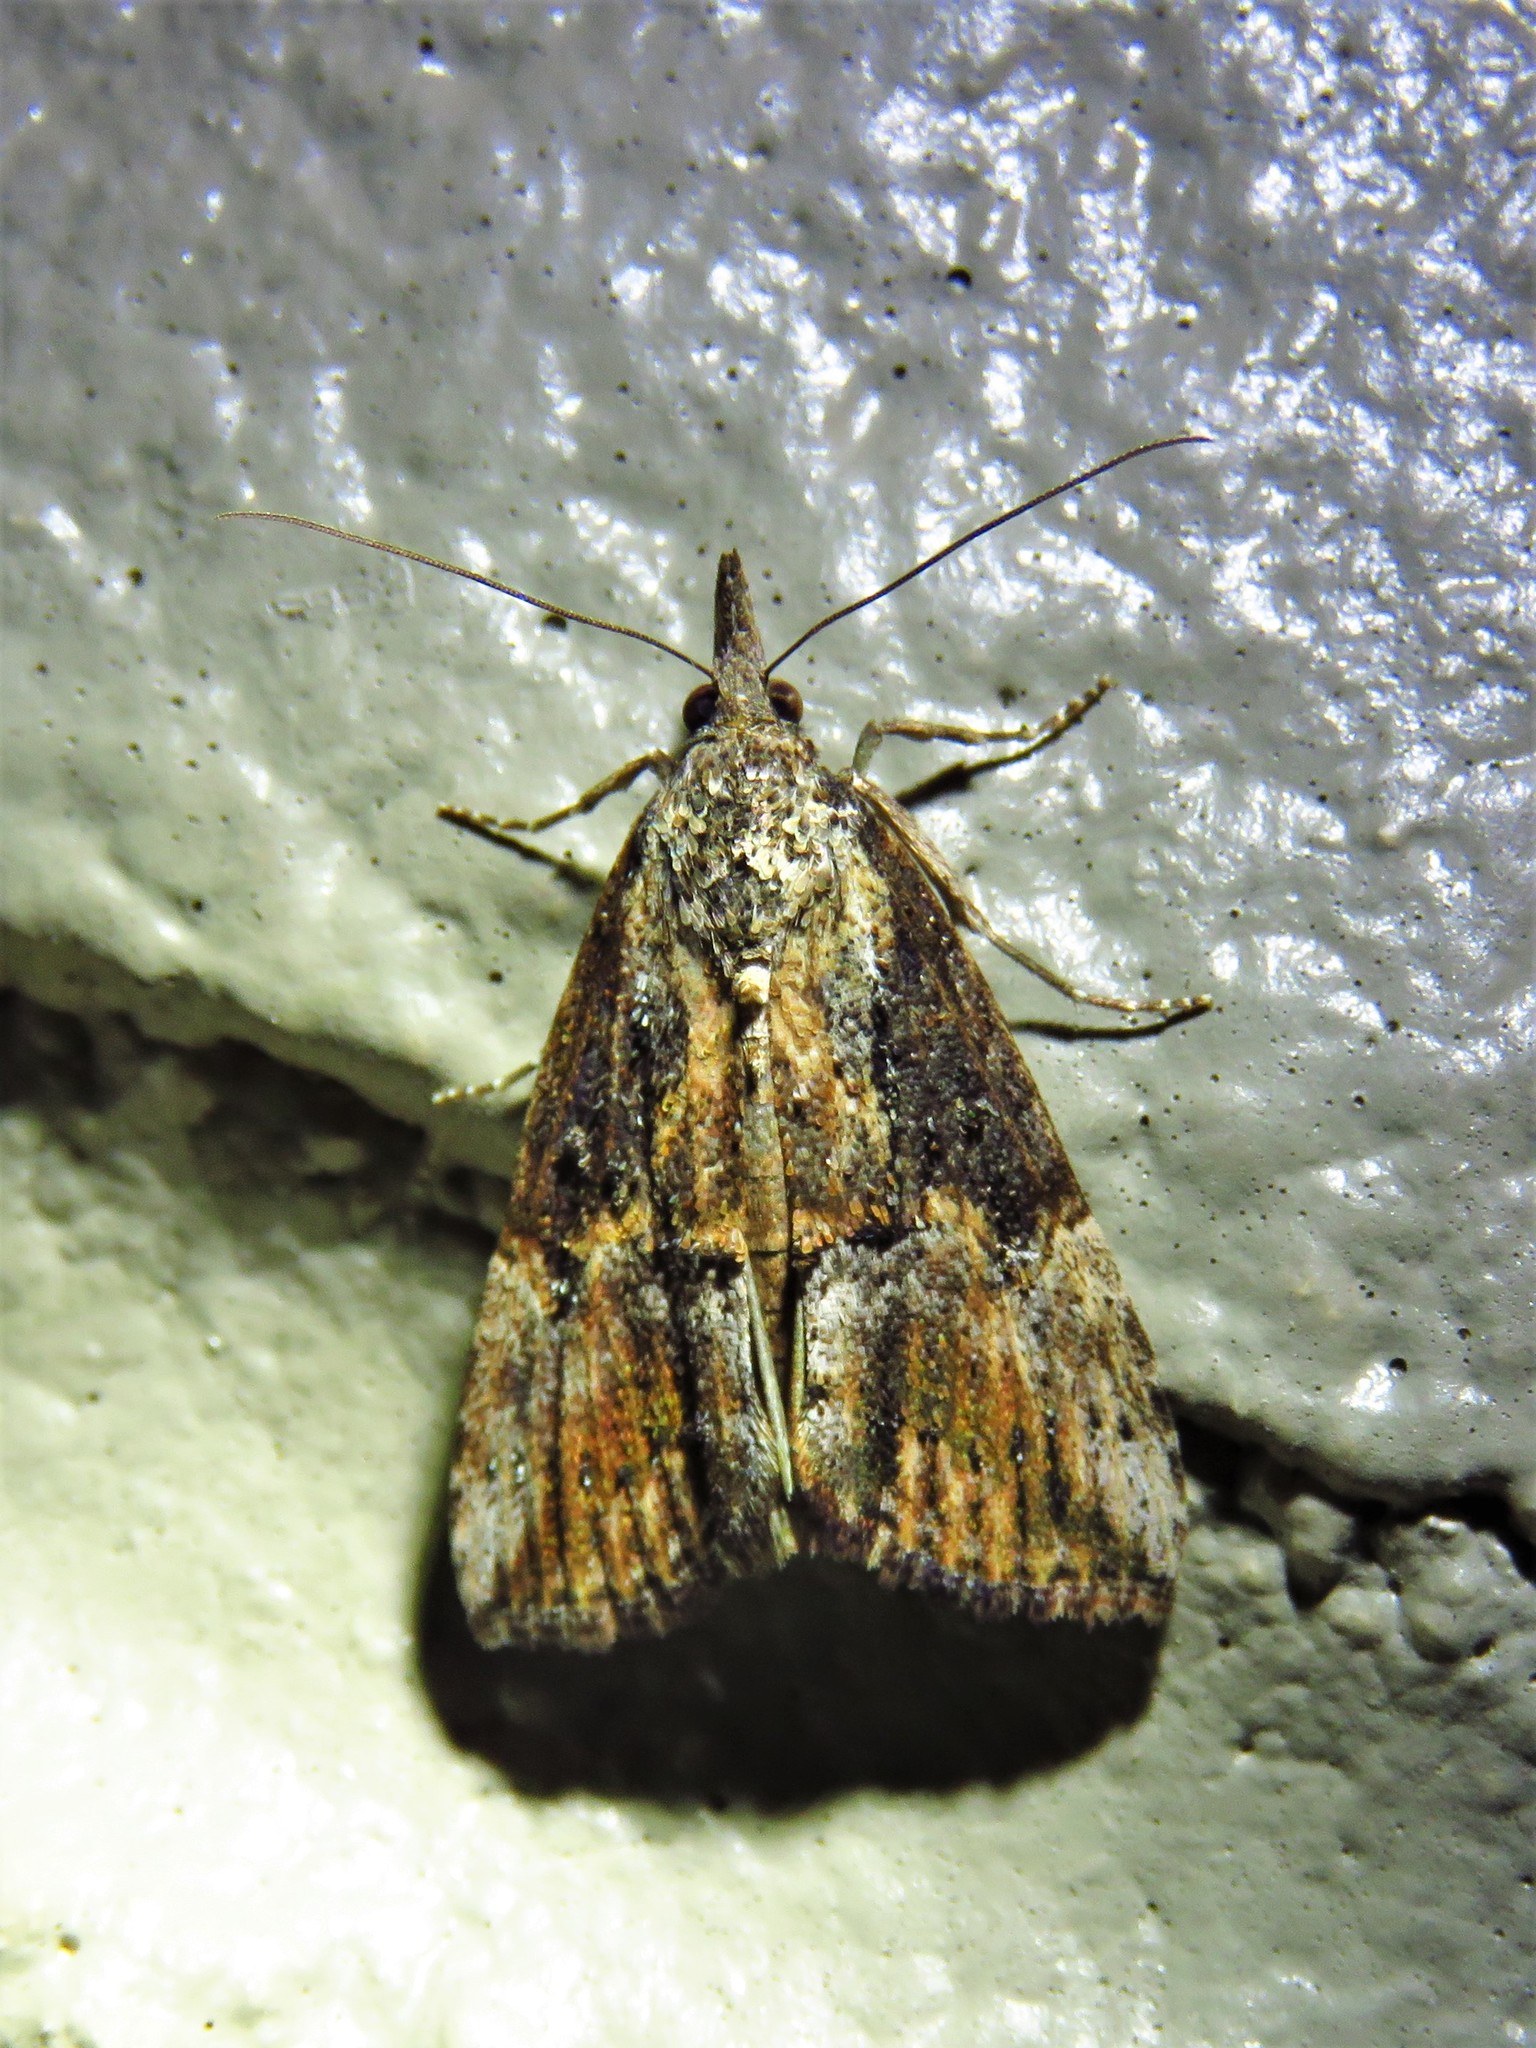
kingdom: Animalia
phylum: Arthropoda
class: Insecta
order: Lepidoptera
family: Erebidae
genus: Hypena
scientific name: Hypena scabra
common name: Green cloverworm
